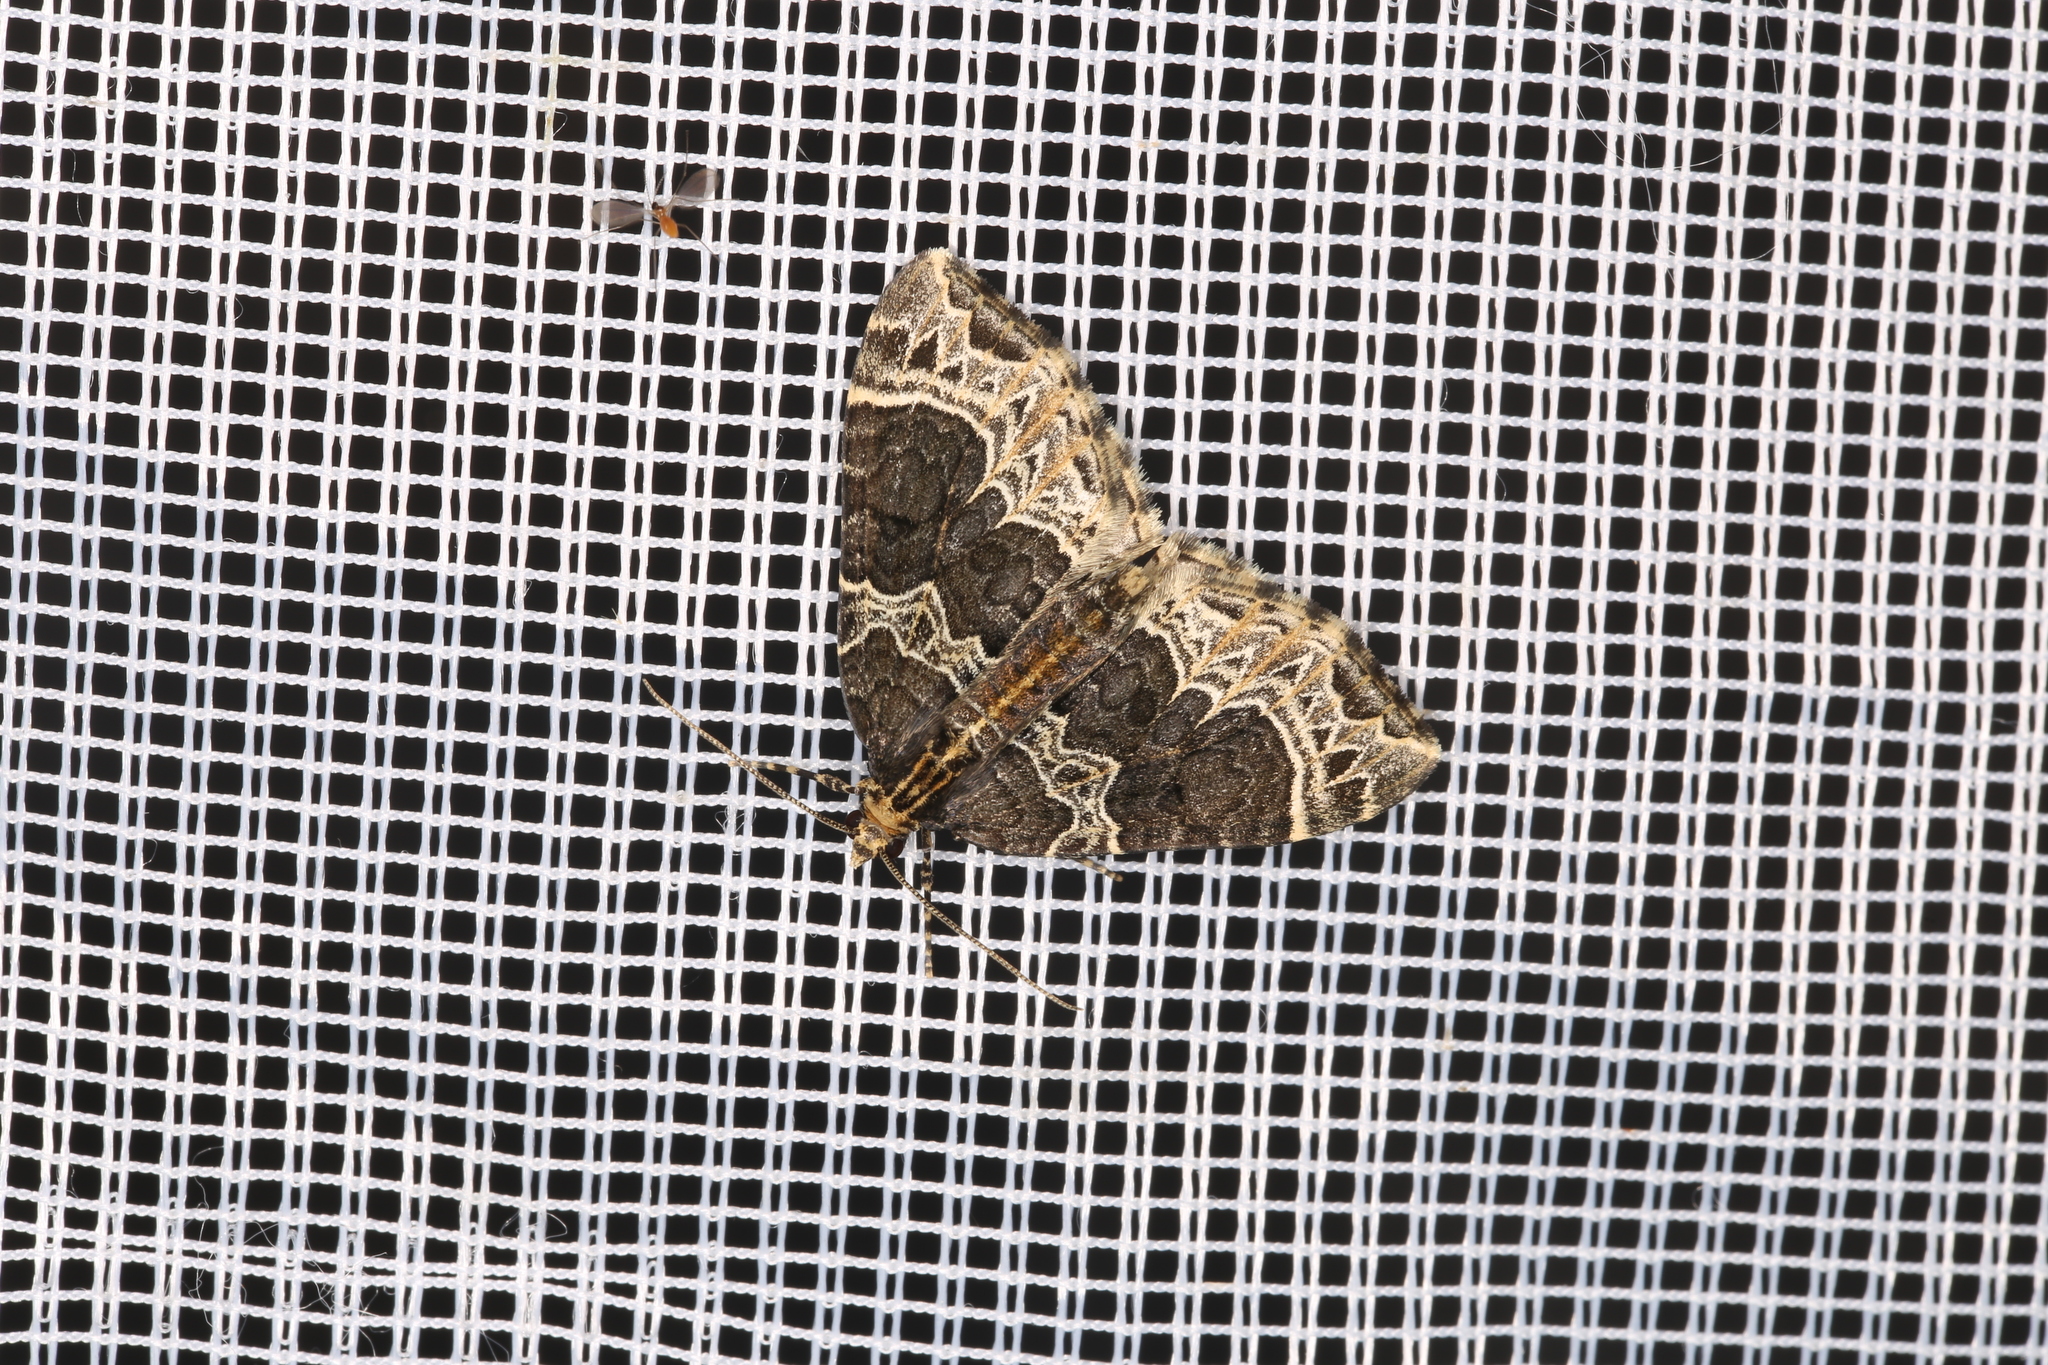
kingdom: Animalia
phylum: Arthropoda
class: Insecta
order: Lepidoptera
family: Geometridae
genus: Ecliptopera
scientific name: Ecliptopera silaceata
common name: Small phoenix
